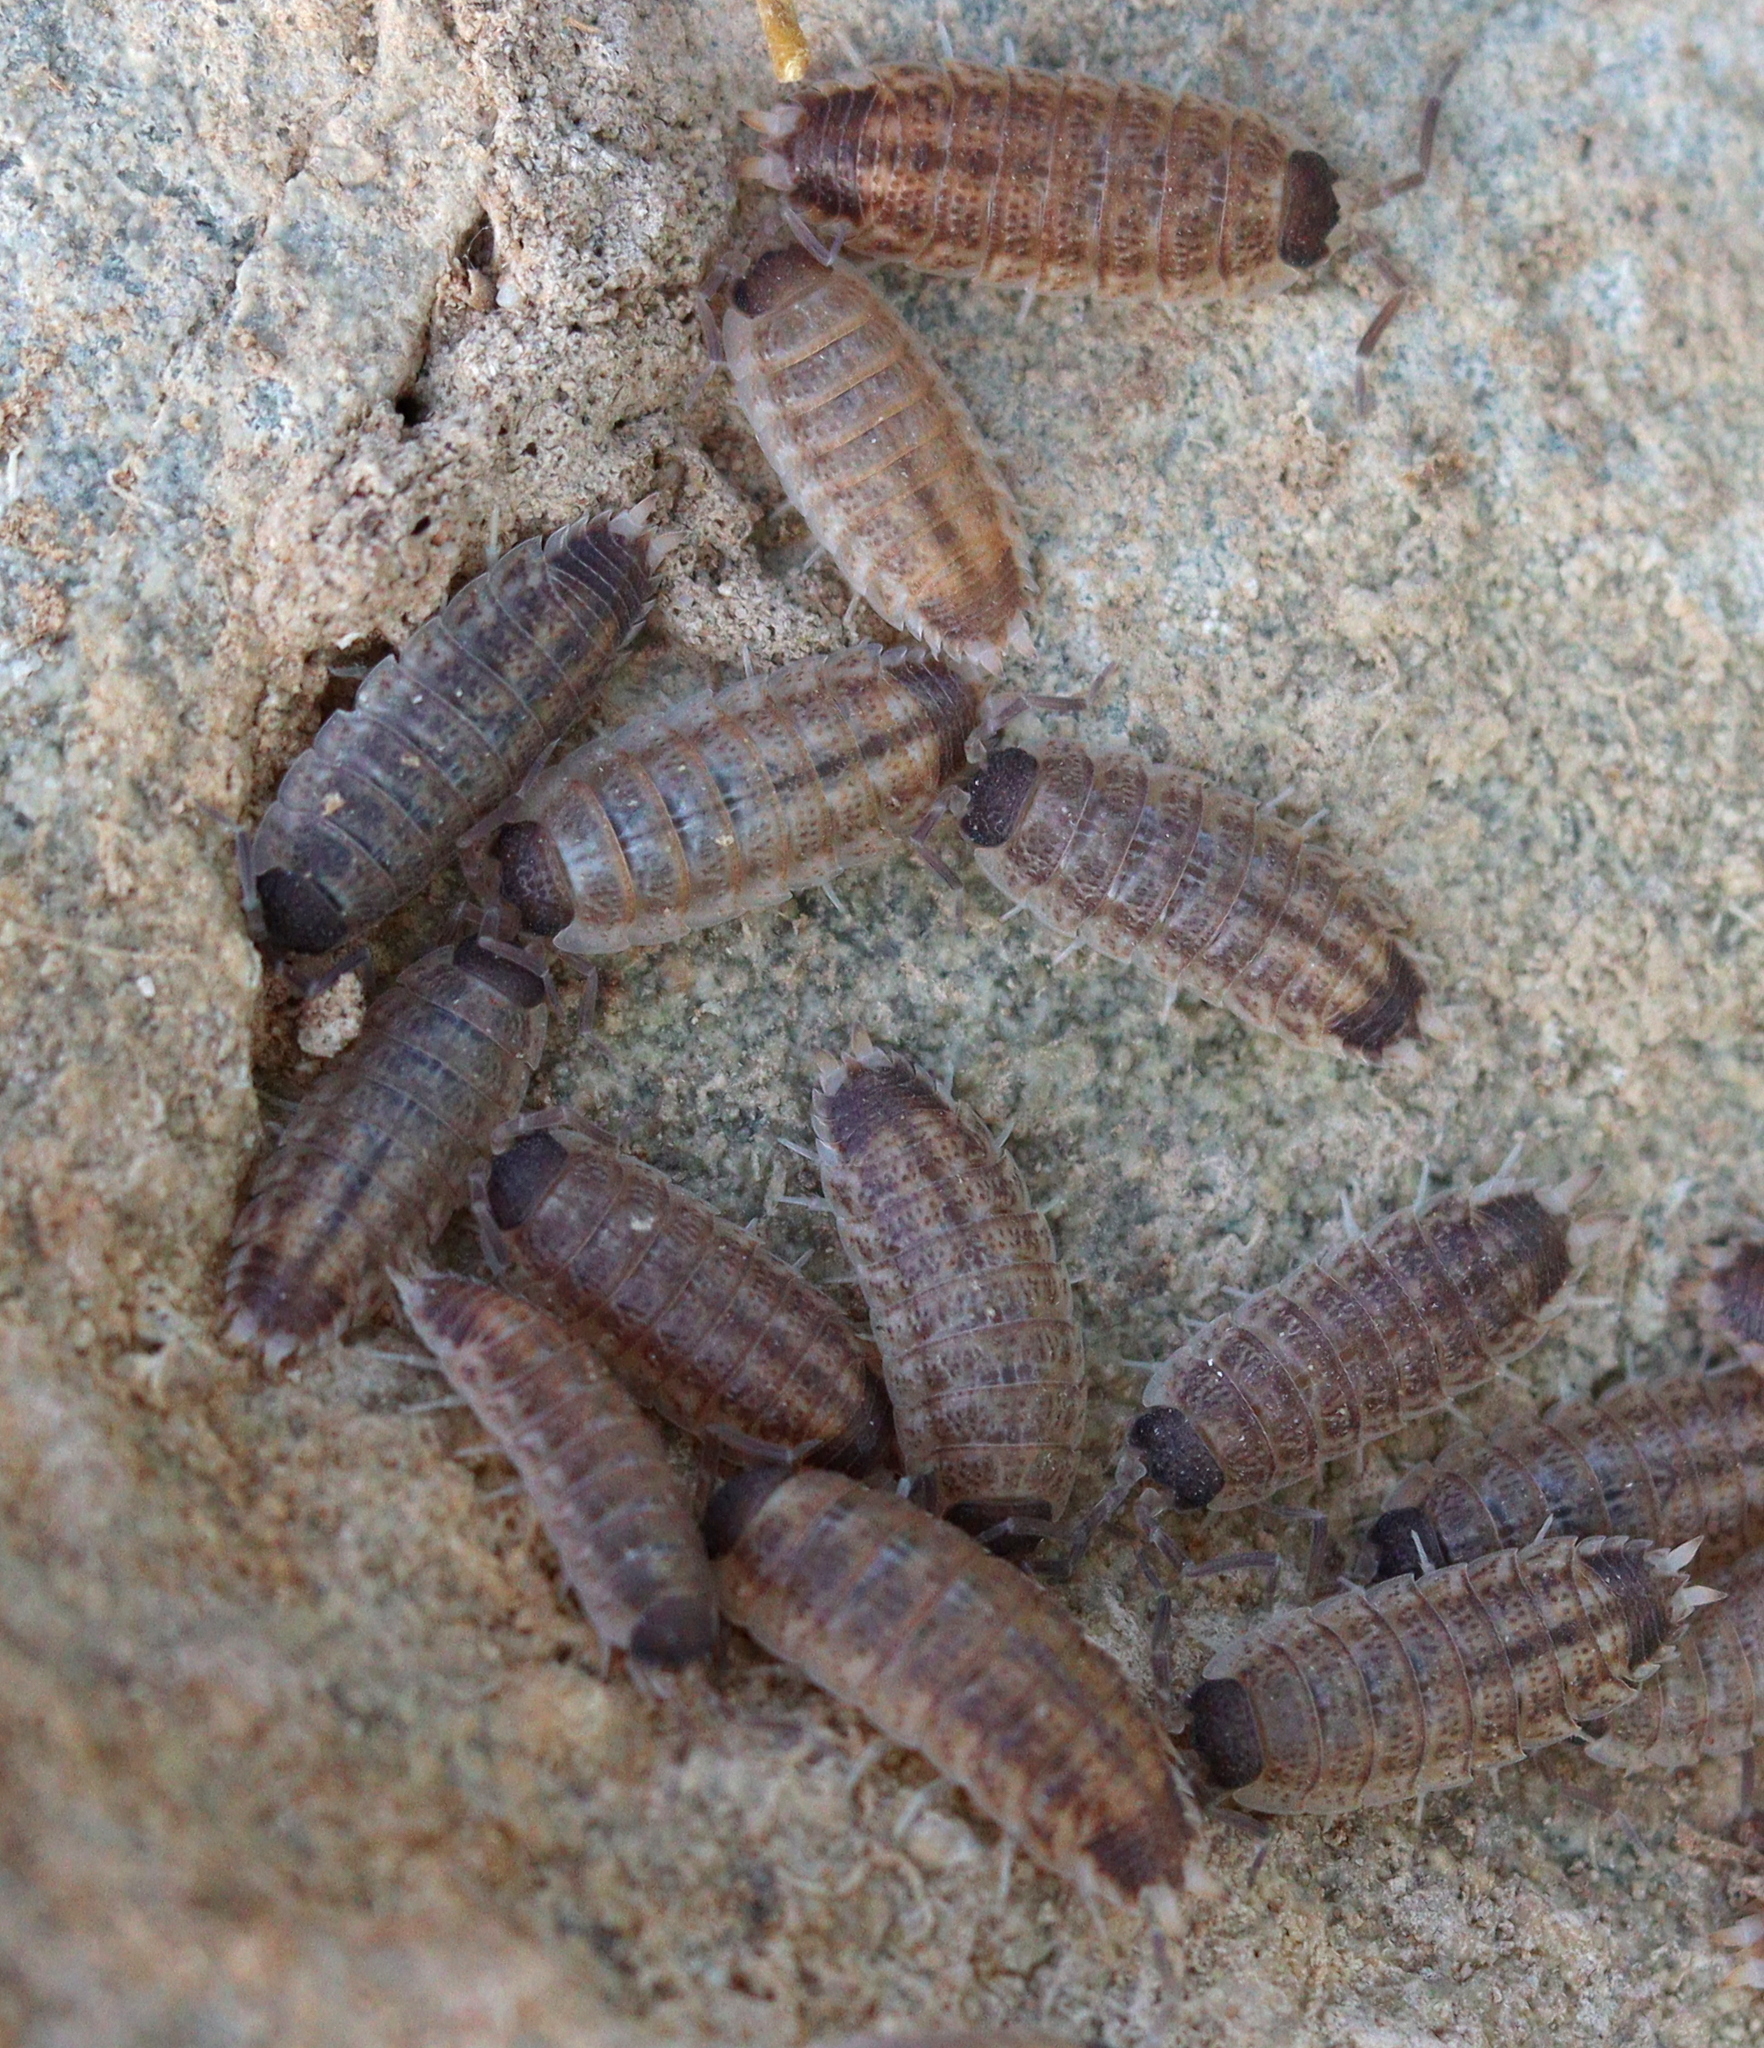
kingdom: Animalia
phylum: Arthropoda
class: Malacostraca
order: Isopoda
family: Porcellionidae
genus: Porcellio
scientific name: Porcellio evansi
